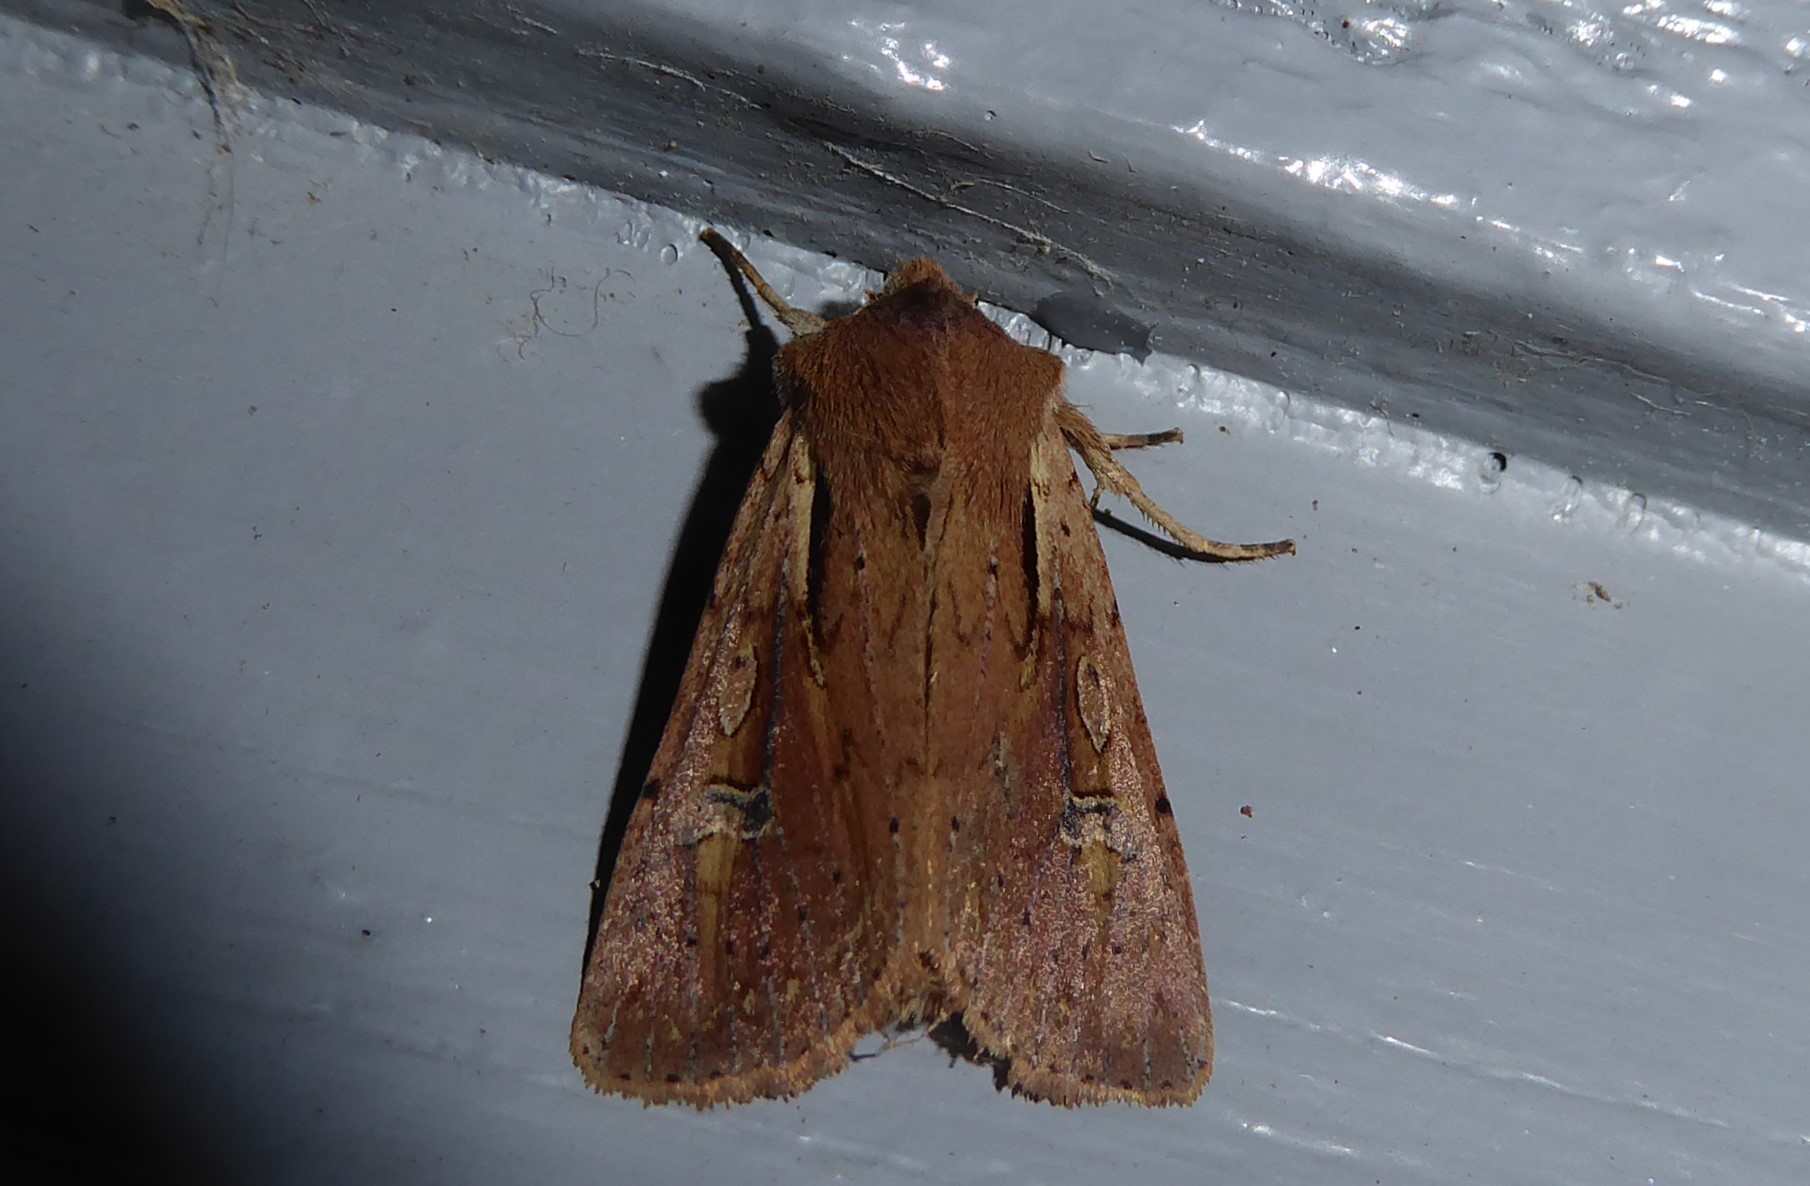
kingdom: Animalia
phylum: Arthropoda
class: Insecta
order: Lepidoptera
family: Noctuidae
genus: Ichneutica
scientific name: Ichneutica atristriga
